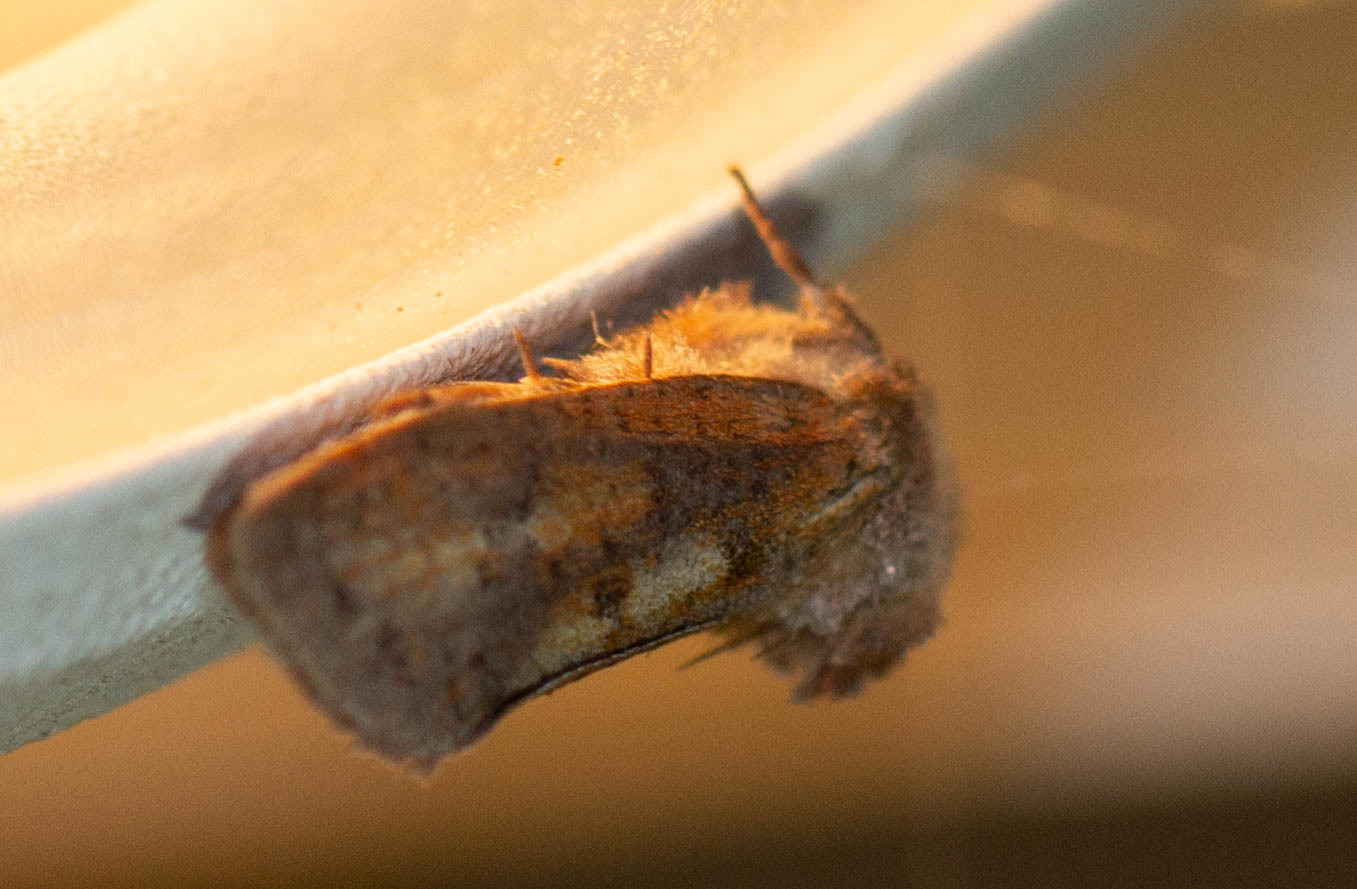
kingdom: Animalia
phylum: Arthropoda
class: Insecta
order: Lepidoptera
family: Tineidae
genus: Acrolophus
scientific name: Acrolophus plumifrontella
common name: Eastern grass tubeworm moth
